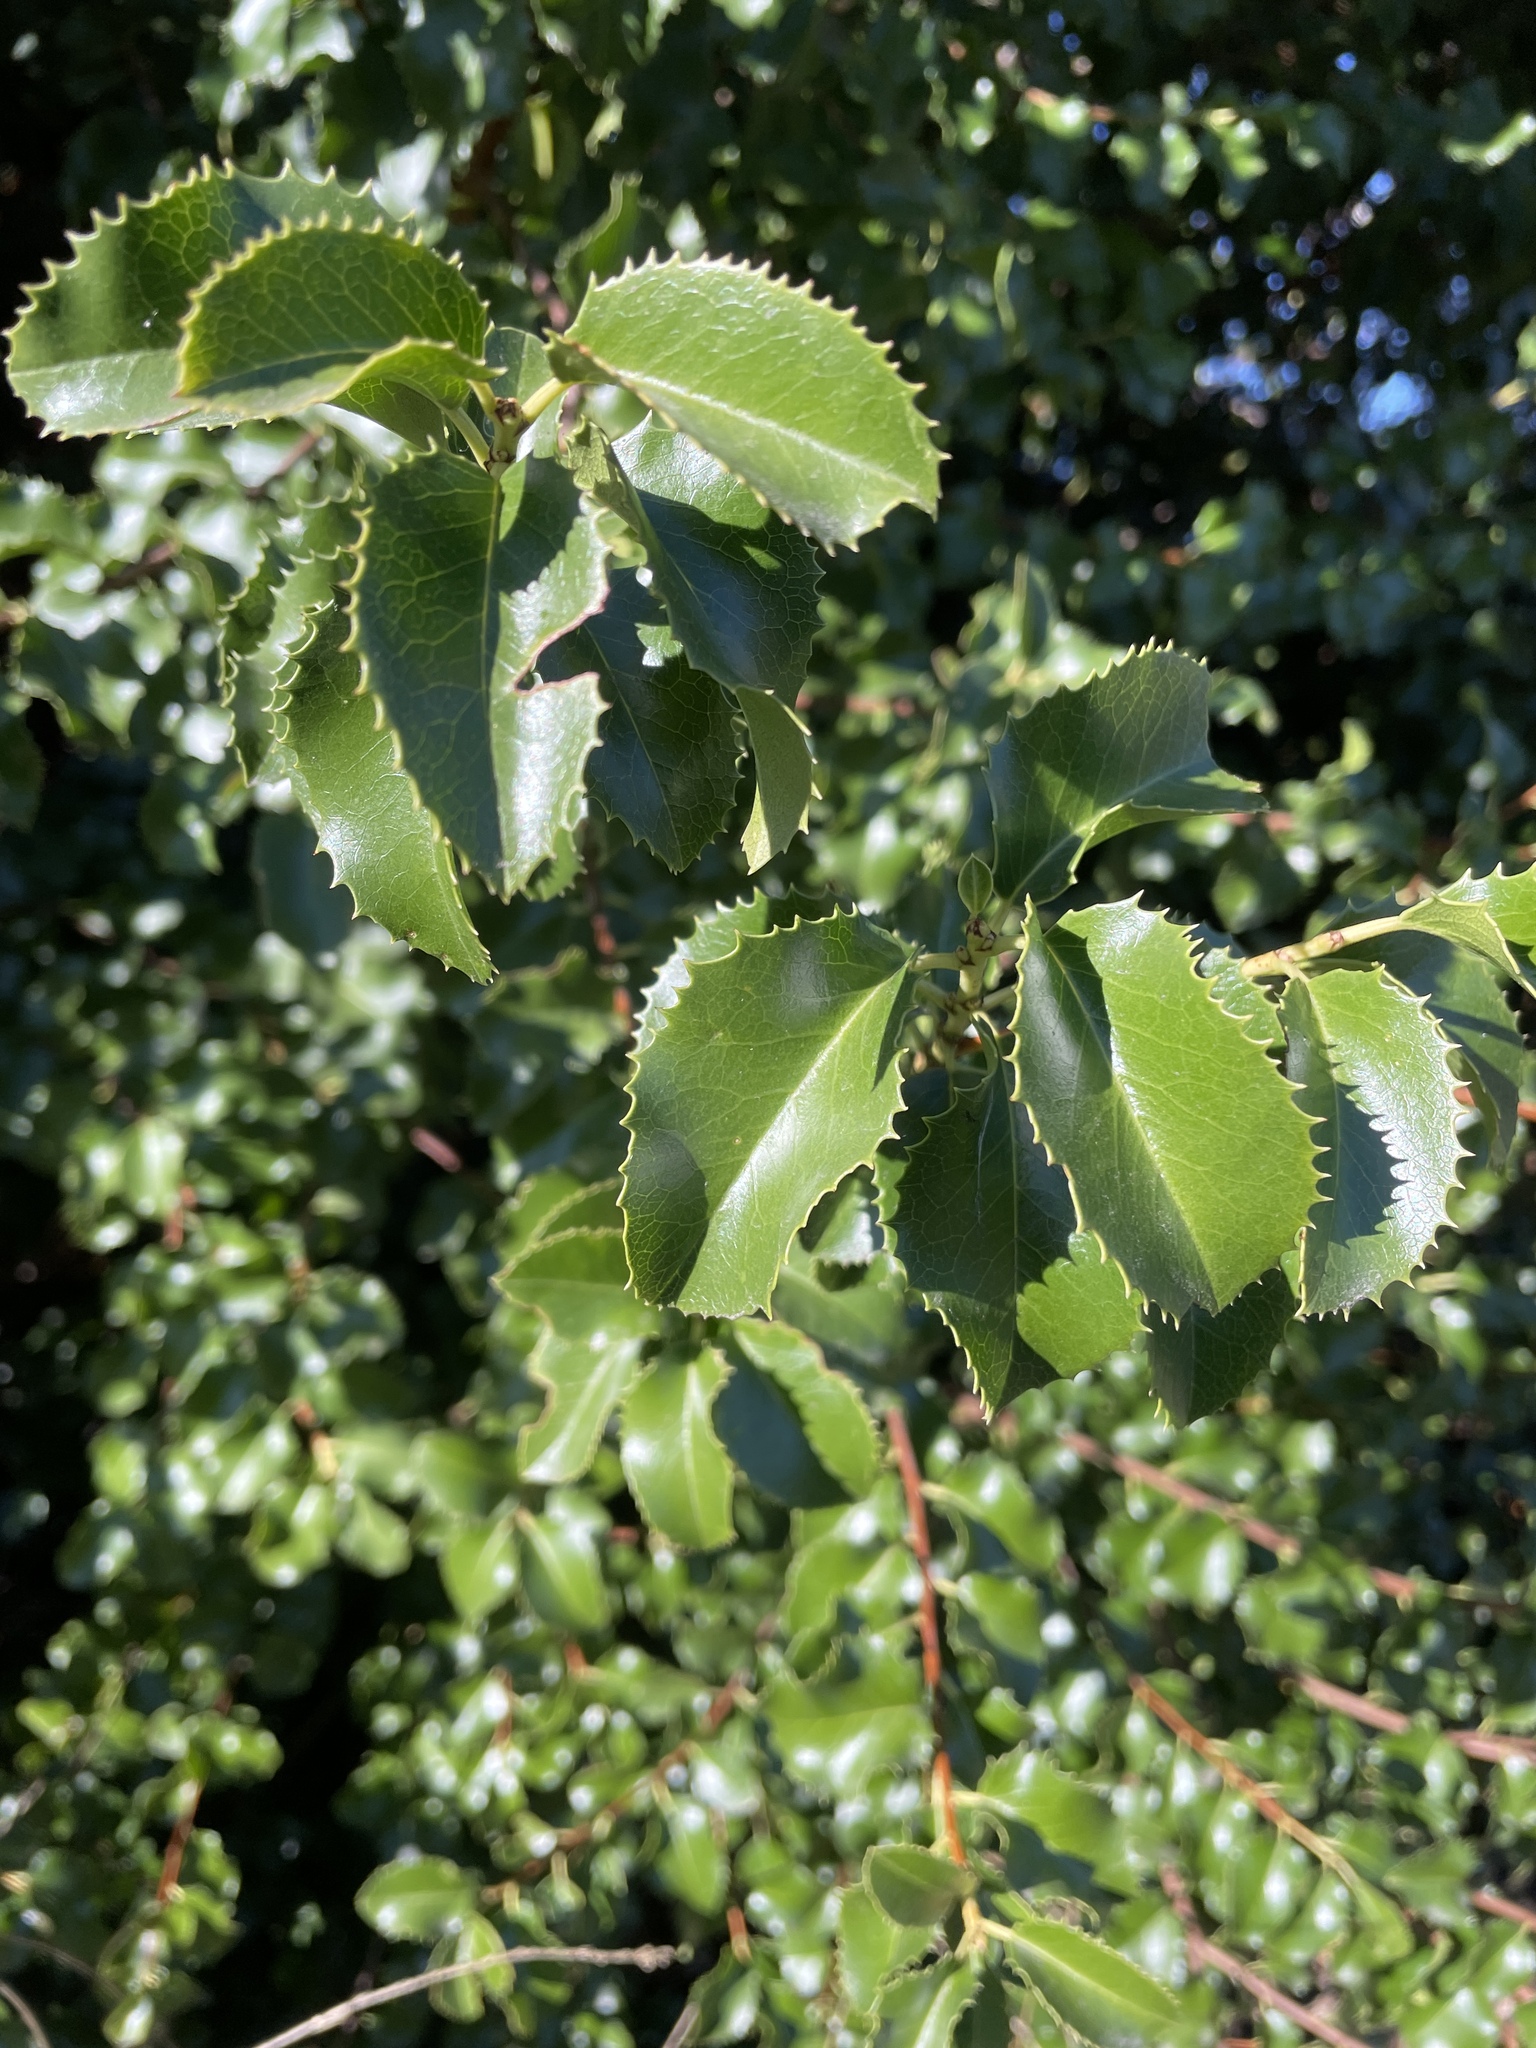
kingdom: Plantae
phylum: Tracheophyta
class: Magnoliopsida
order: Rosales
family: Rosaceae
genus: Prunus
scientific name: Prunus ilicifolia
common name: Hollyleaf cherry
